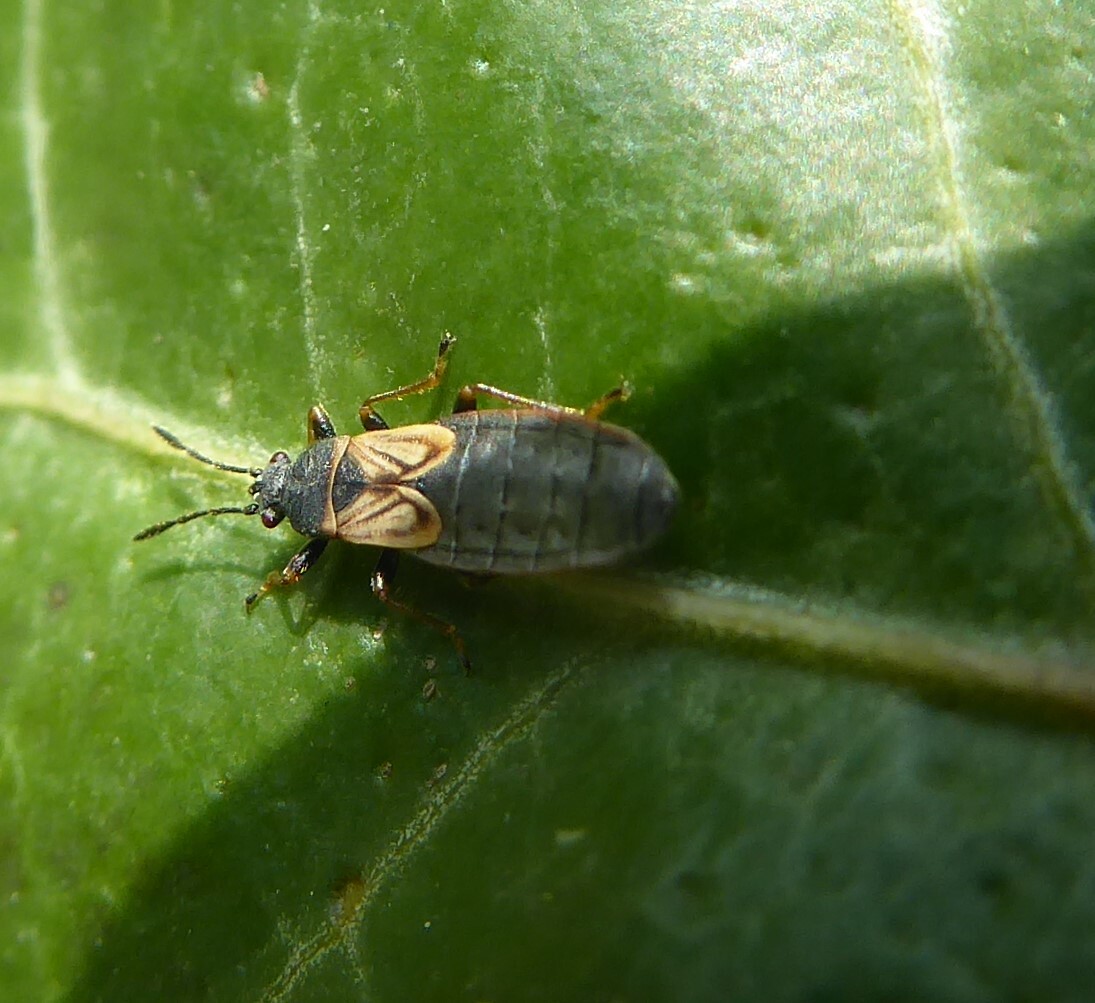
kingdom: Animalia
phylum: Arthropoda
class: Insecta
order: Hemiptera
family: Blissidae
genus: Ischnodemus
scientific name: Ischnodemus sabuleti
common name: European cinchbug
